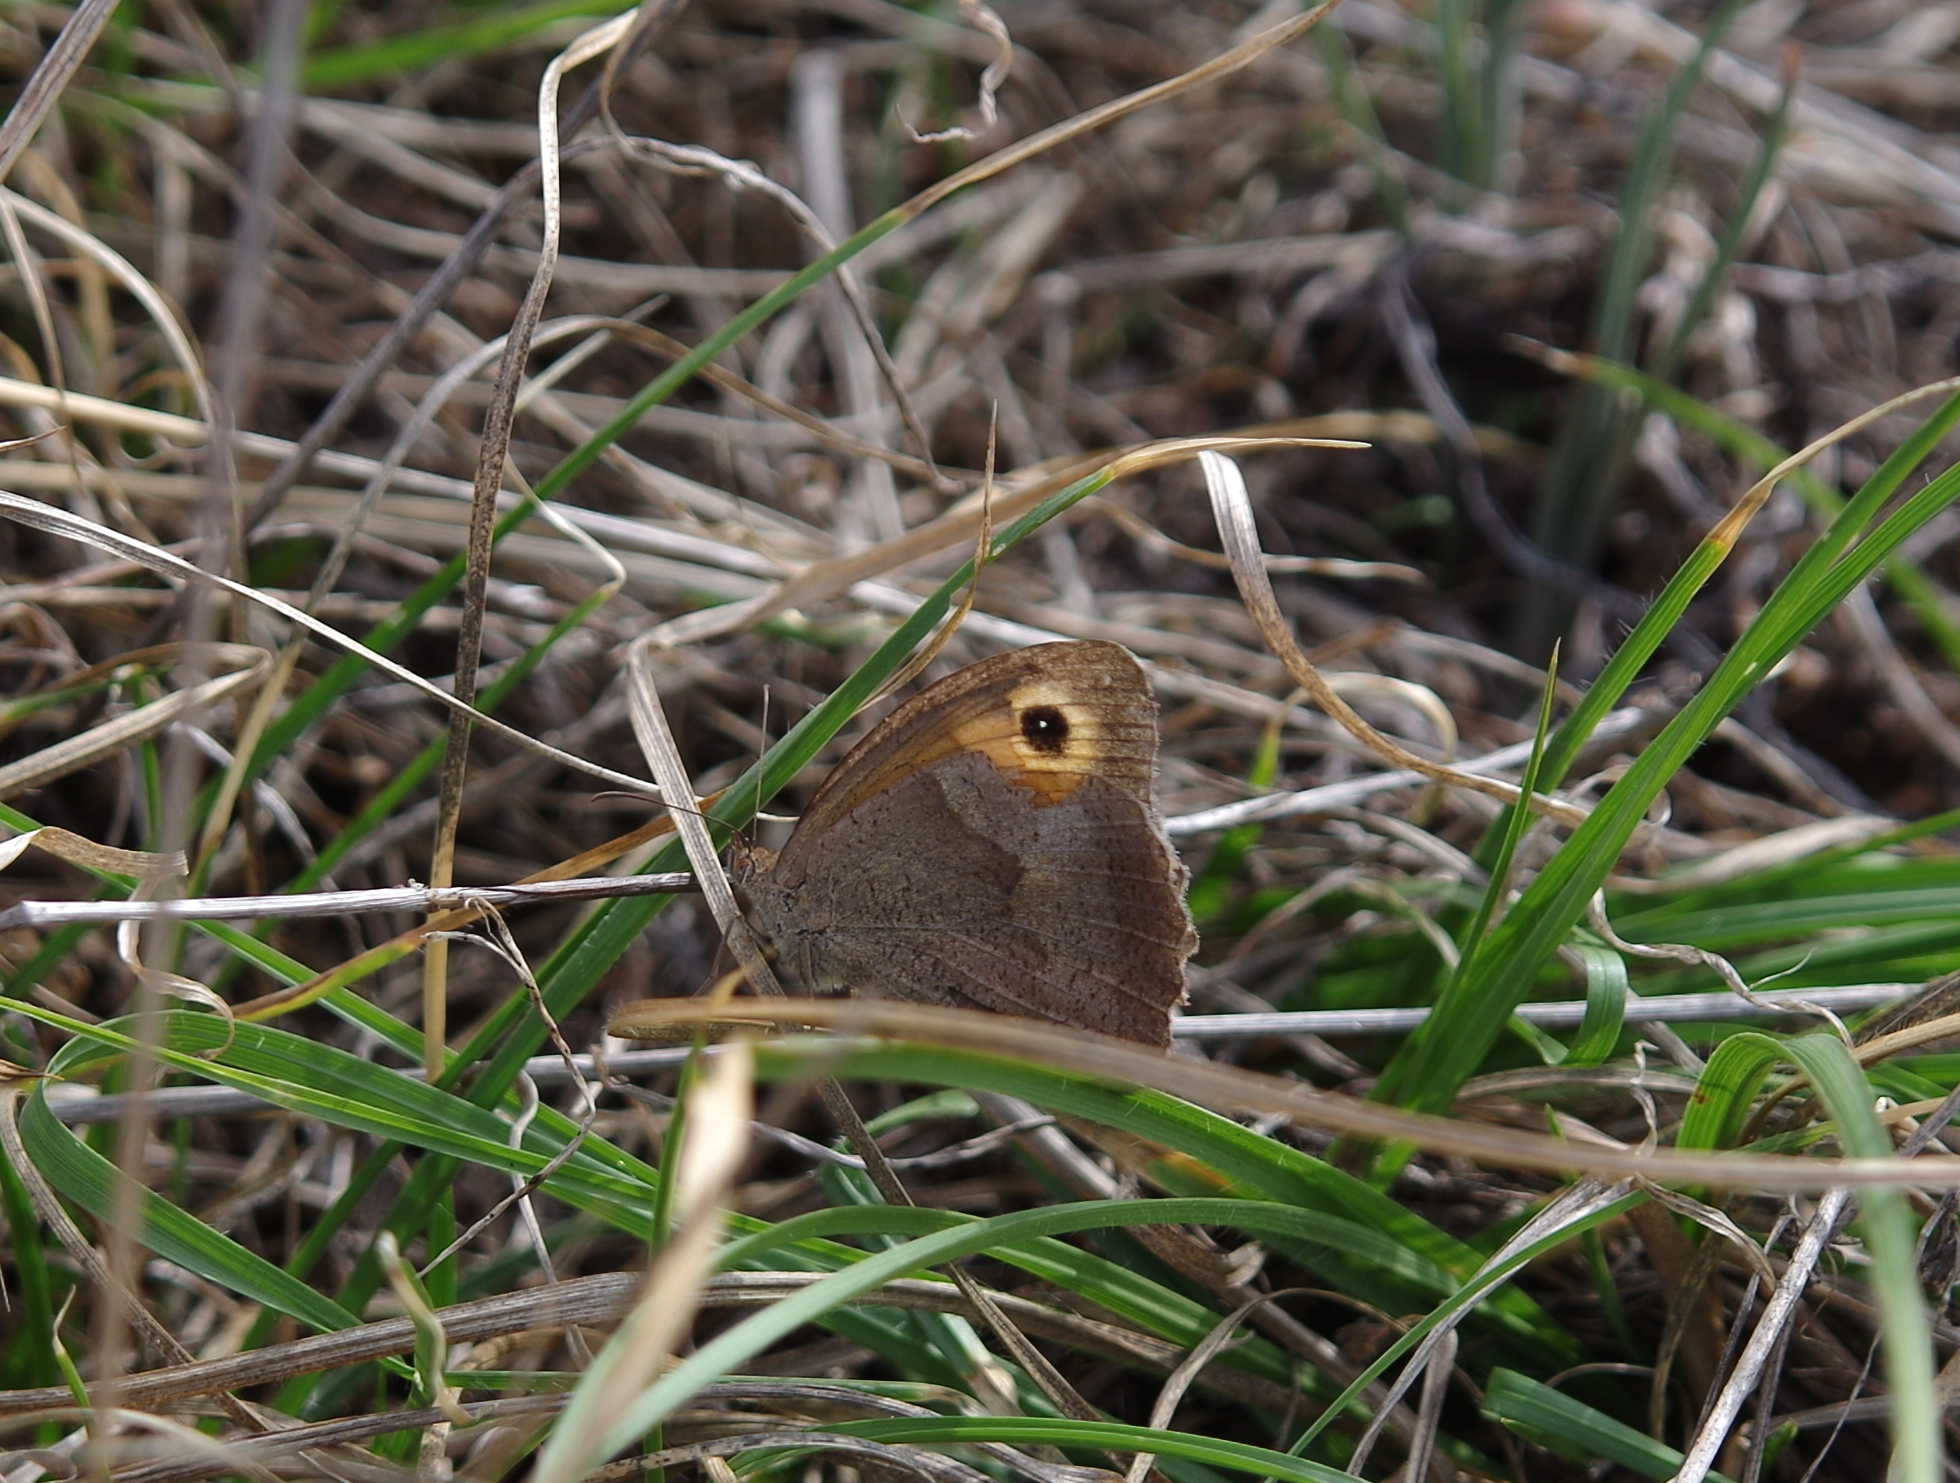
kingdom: Animalia
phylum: Arthropoda
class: Insecta
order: Lepidoptera
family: Nymphalidae
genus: Maniola
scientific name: Maniola jurtina
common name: Meadow brown
